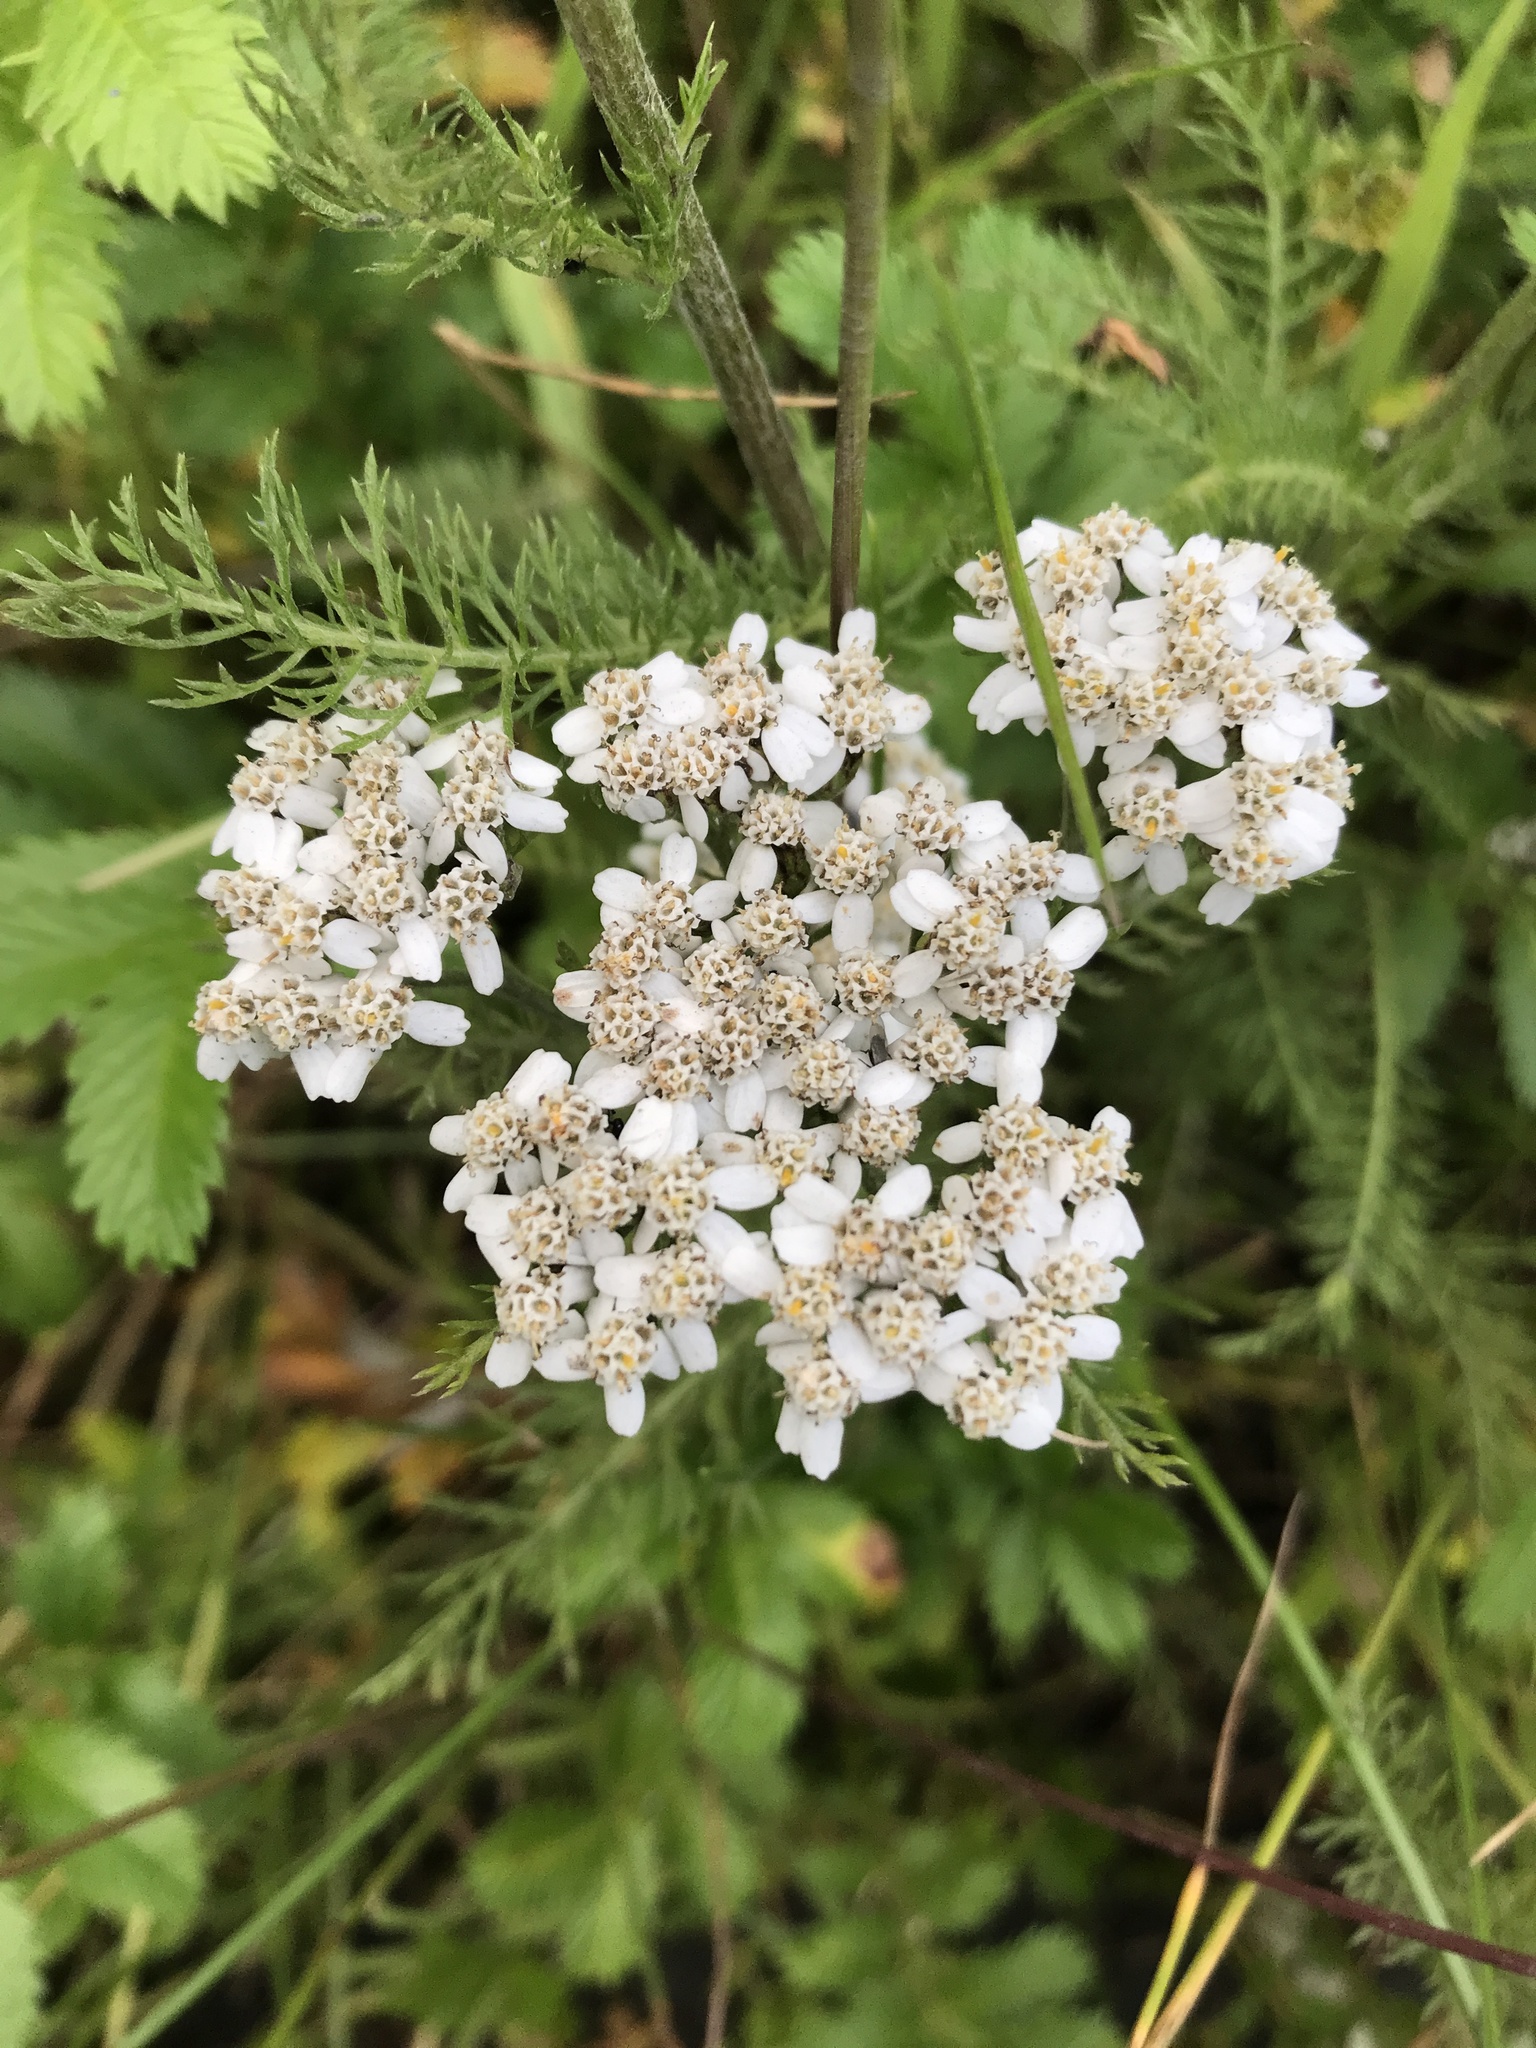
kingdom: Plantae
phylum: Tracheophyta
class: Magnoliopsida
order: Asterales
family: Asteraceae
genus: Achillea
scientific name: Achillea millefolium
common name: Yarrow
